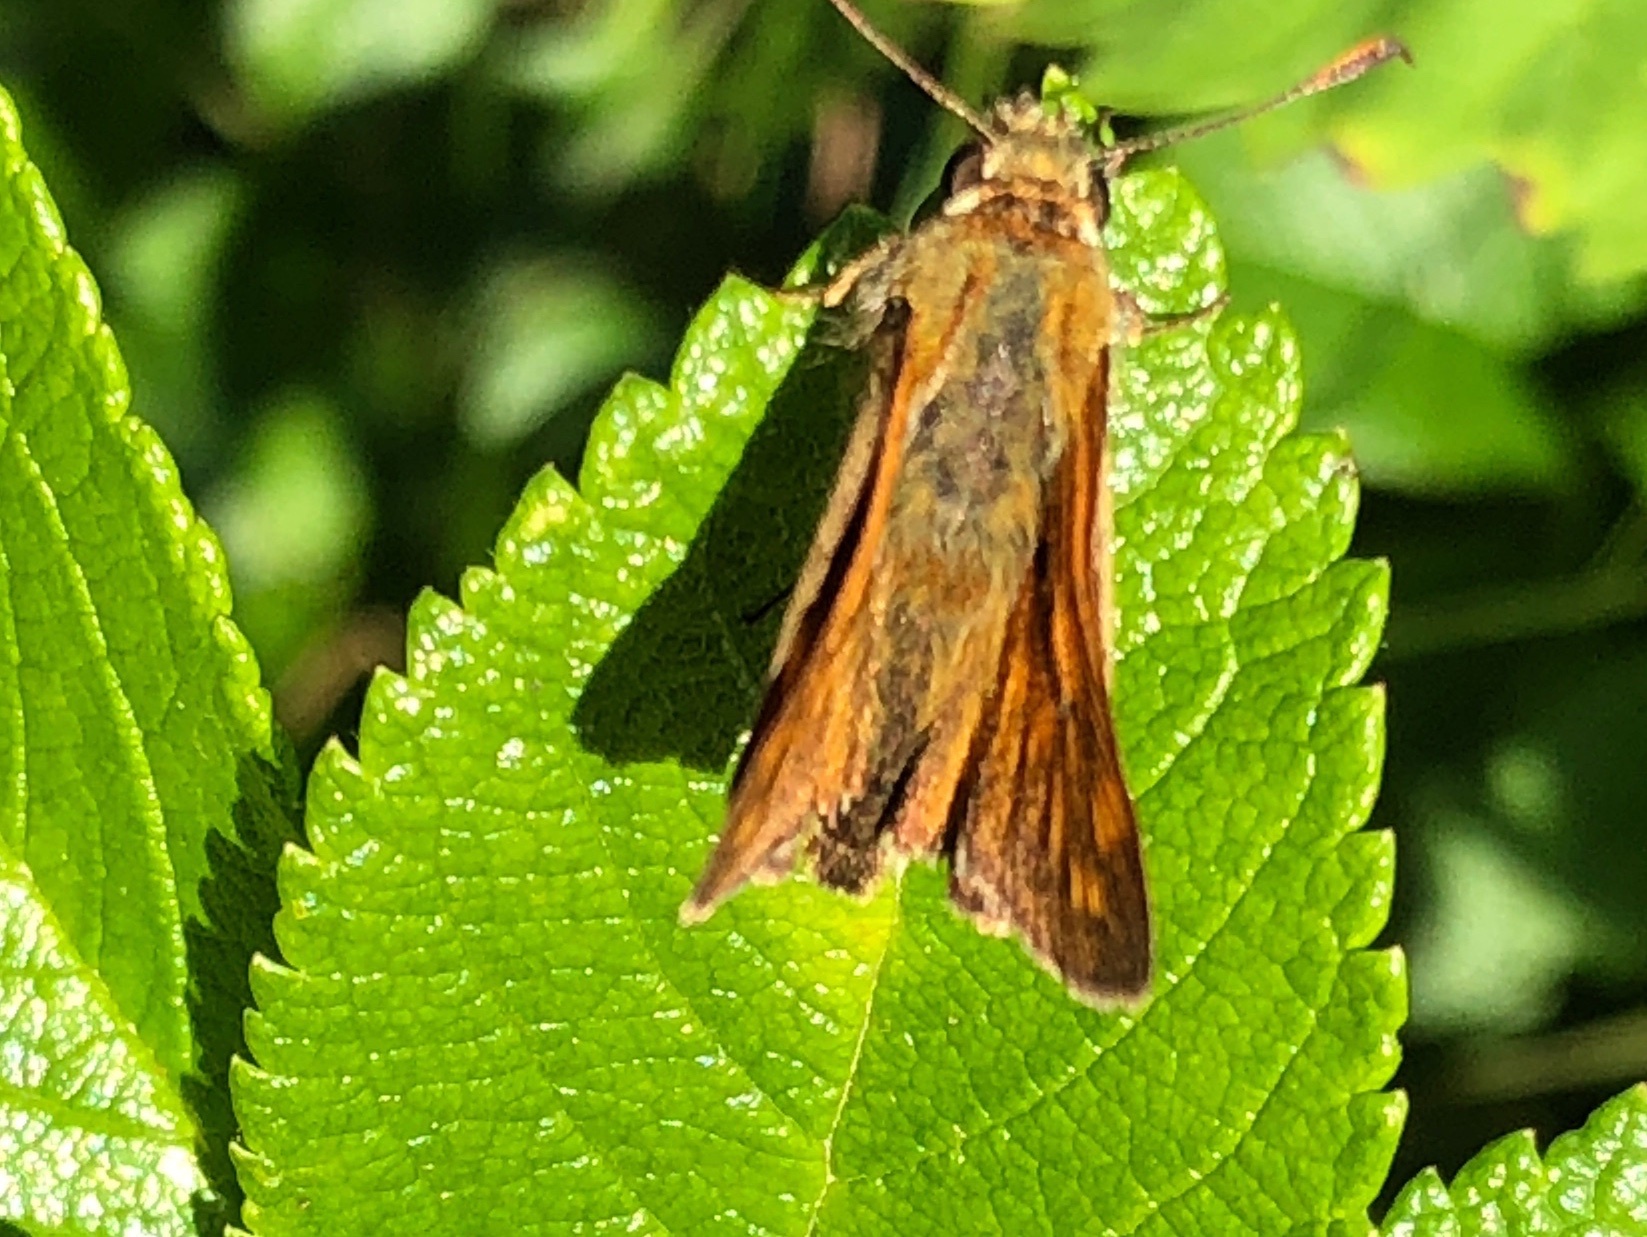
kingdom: Animalia
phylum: Arthropoda
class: Insecta
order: Lepidoptera
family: Hesperiidae
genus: Ochlodes
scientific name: Ochlodes venata
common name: Large skipper
